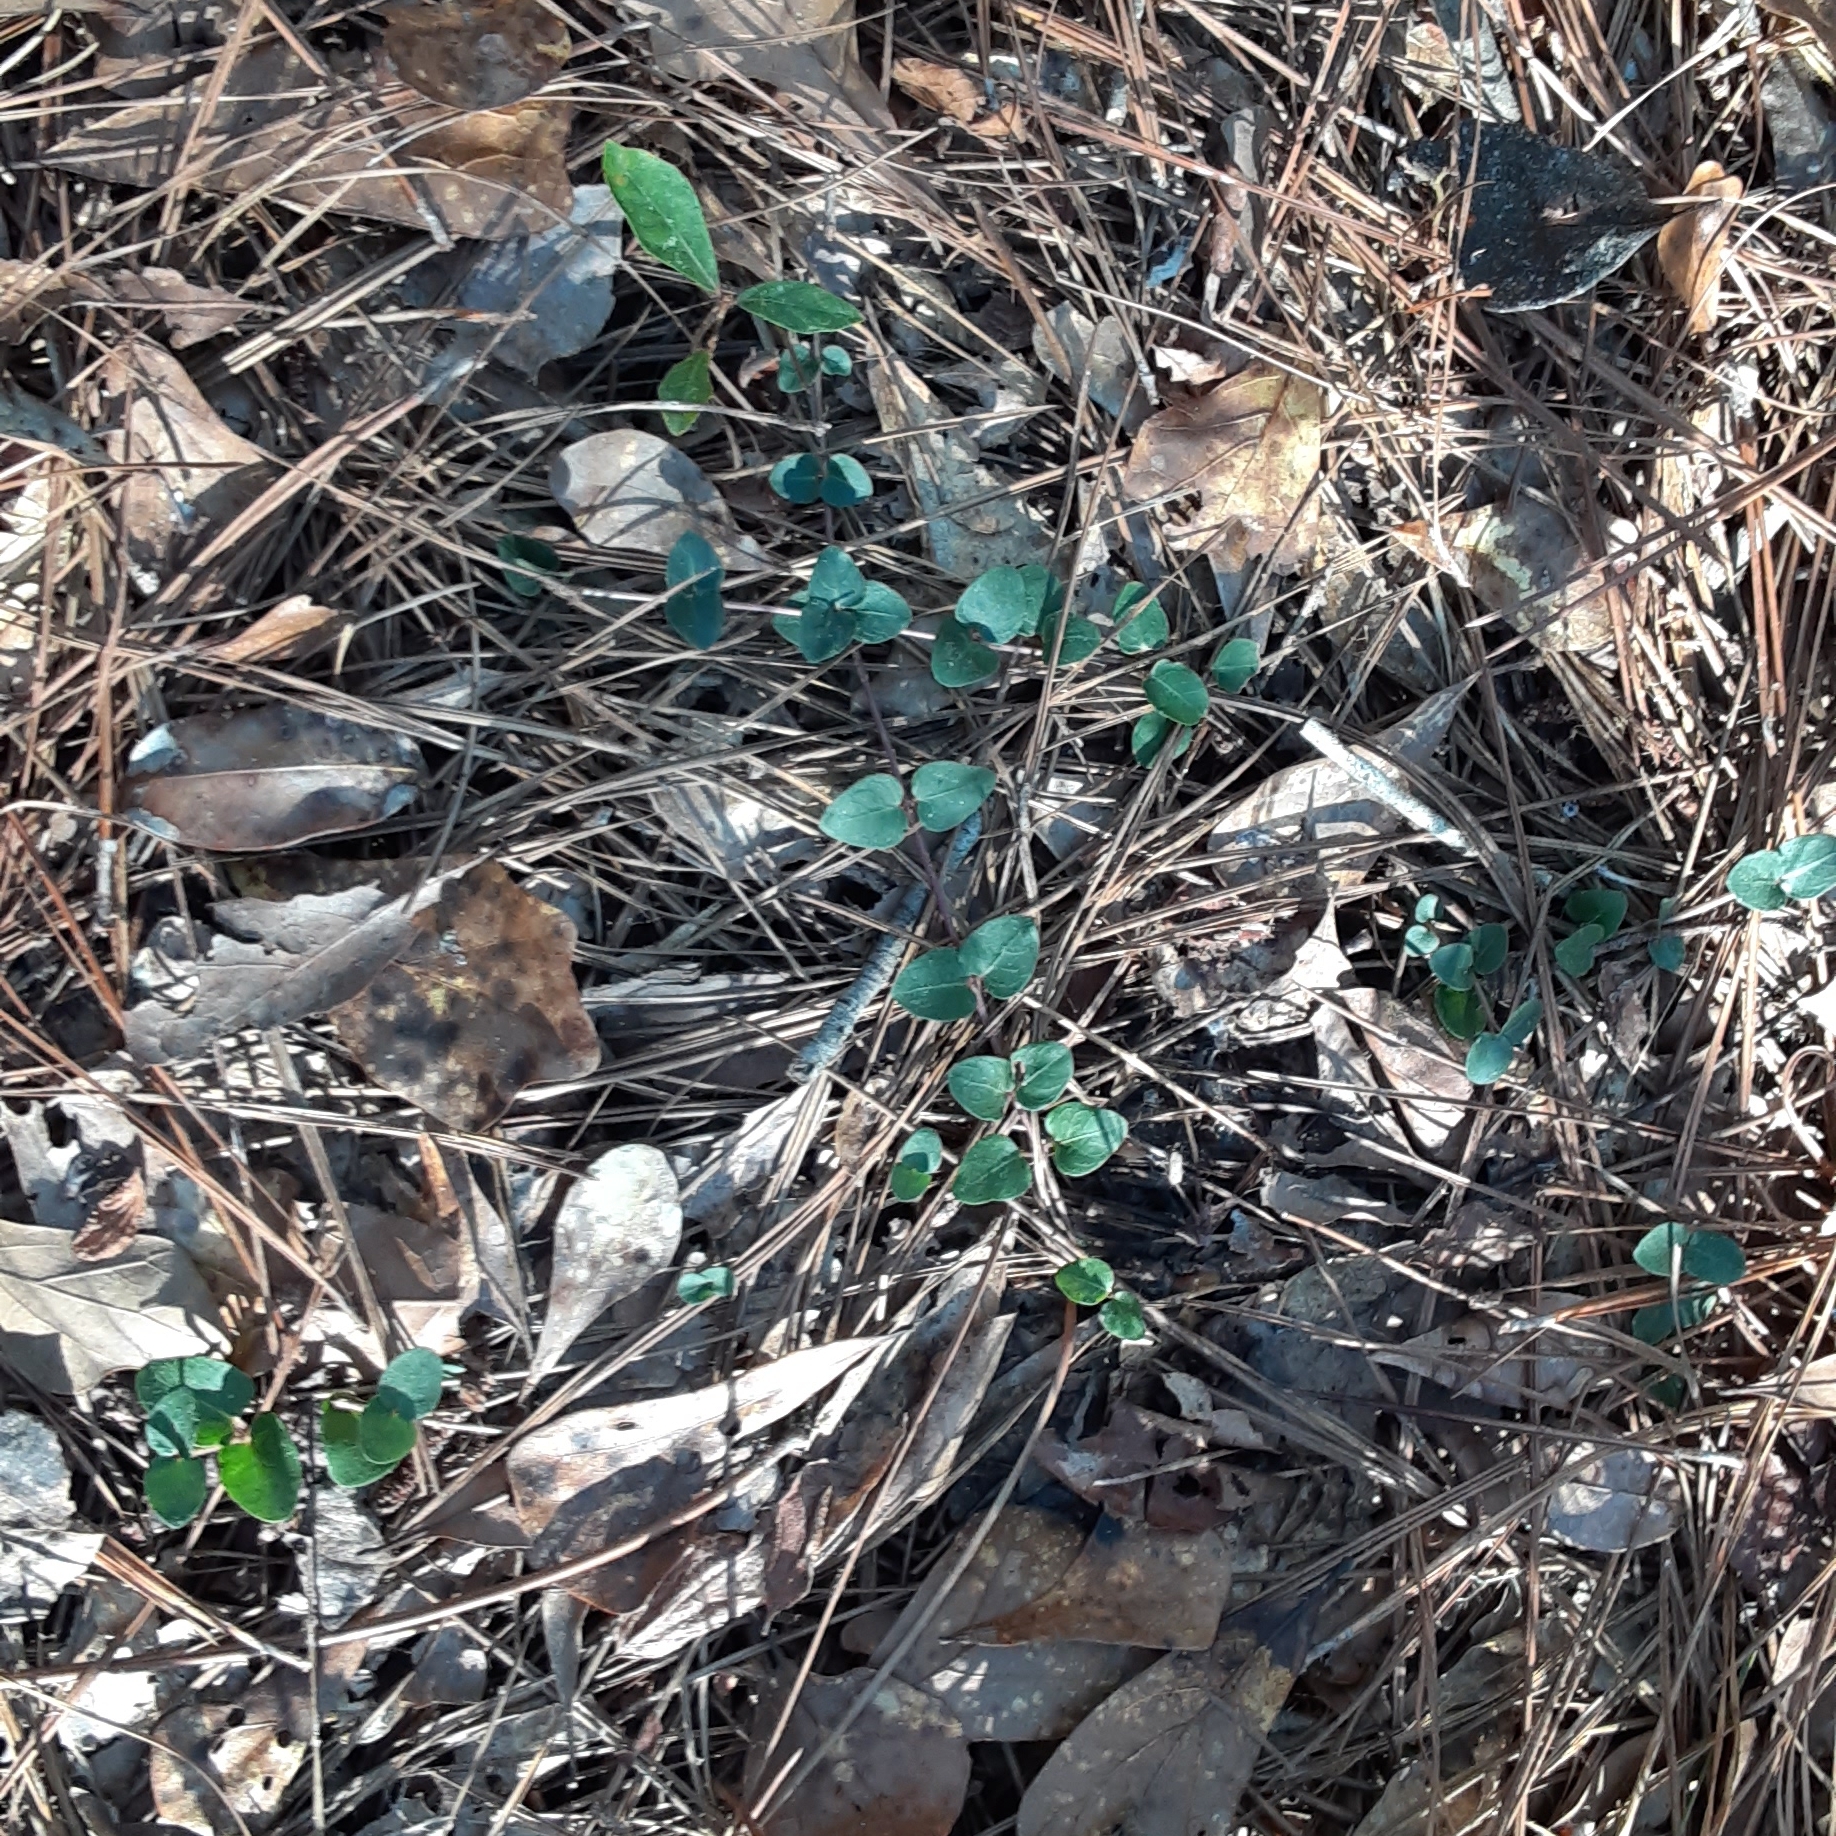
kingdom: Plantae
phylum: Tracheophyta
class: Magnoliopsida
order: Gentianales
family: Rubiaceae
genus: Mitchella
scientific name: Mitchella repens
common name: Partridge-berry
